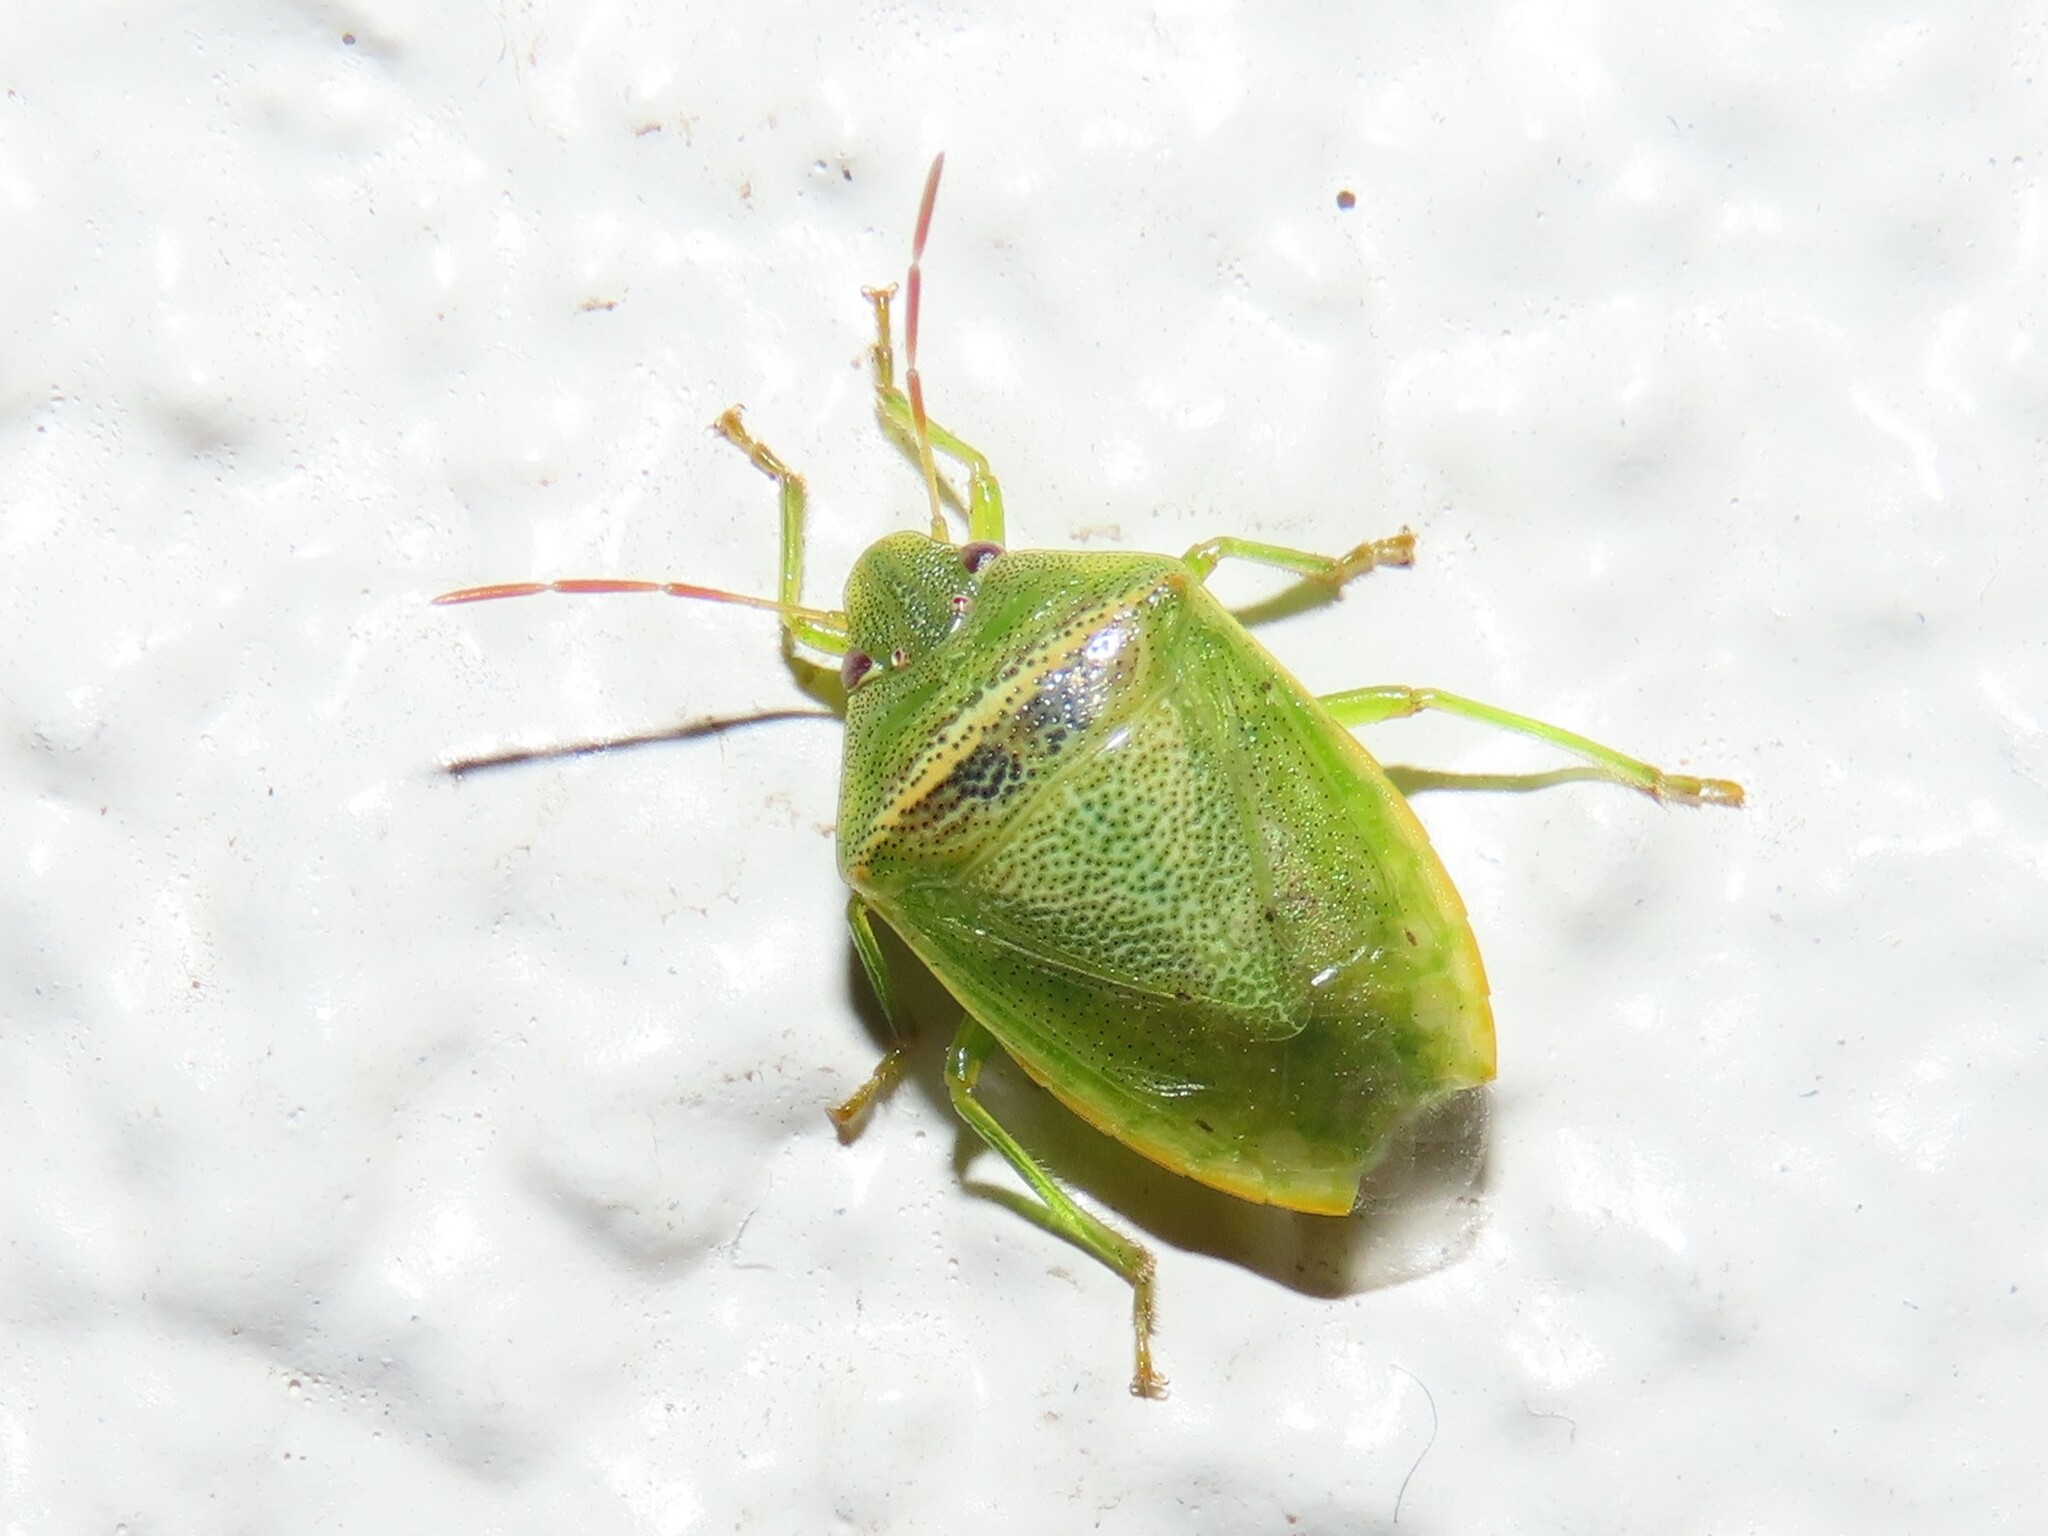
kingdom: Animalia
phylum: Arthropoda
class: Insecta
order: Hemiptera
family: Pentatomidae
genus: Piezodorus
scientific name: Piezodorus guildinii
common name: Redbanded stink bug
